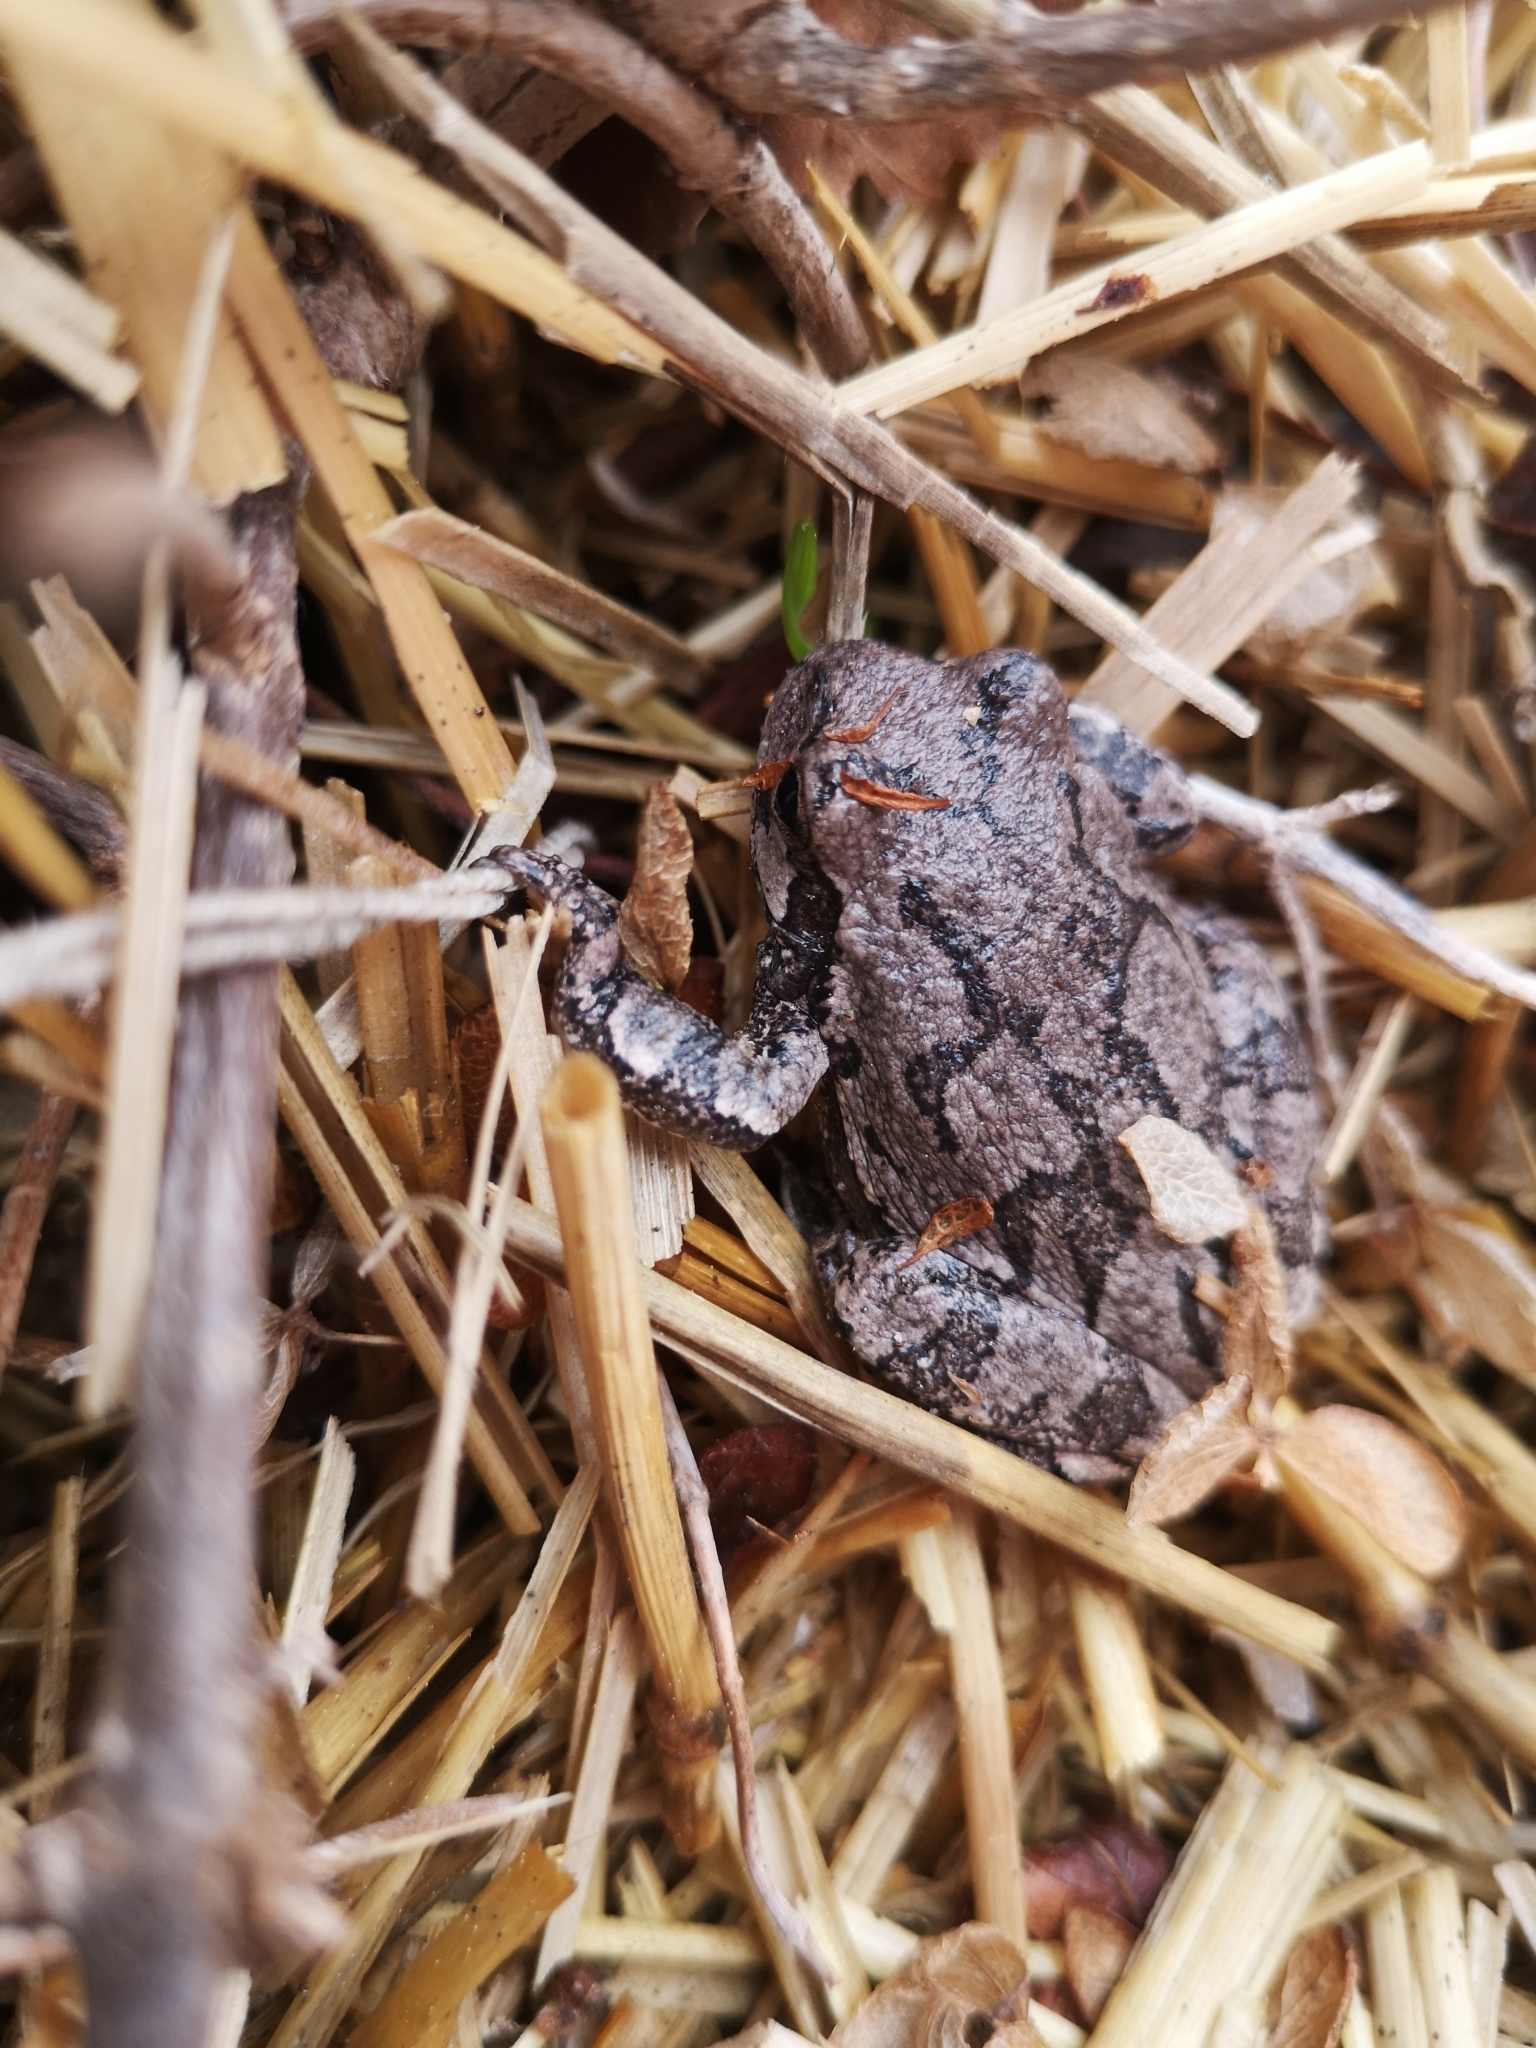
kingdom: Animalia
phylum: Chordata
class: Amphibia
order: Anura
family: Hylidae
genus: Dryophytes
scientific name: Dryophytes versicolor
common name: Gray treefrog
